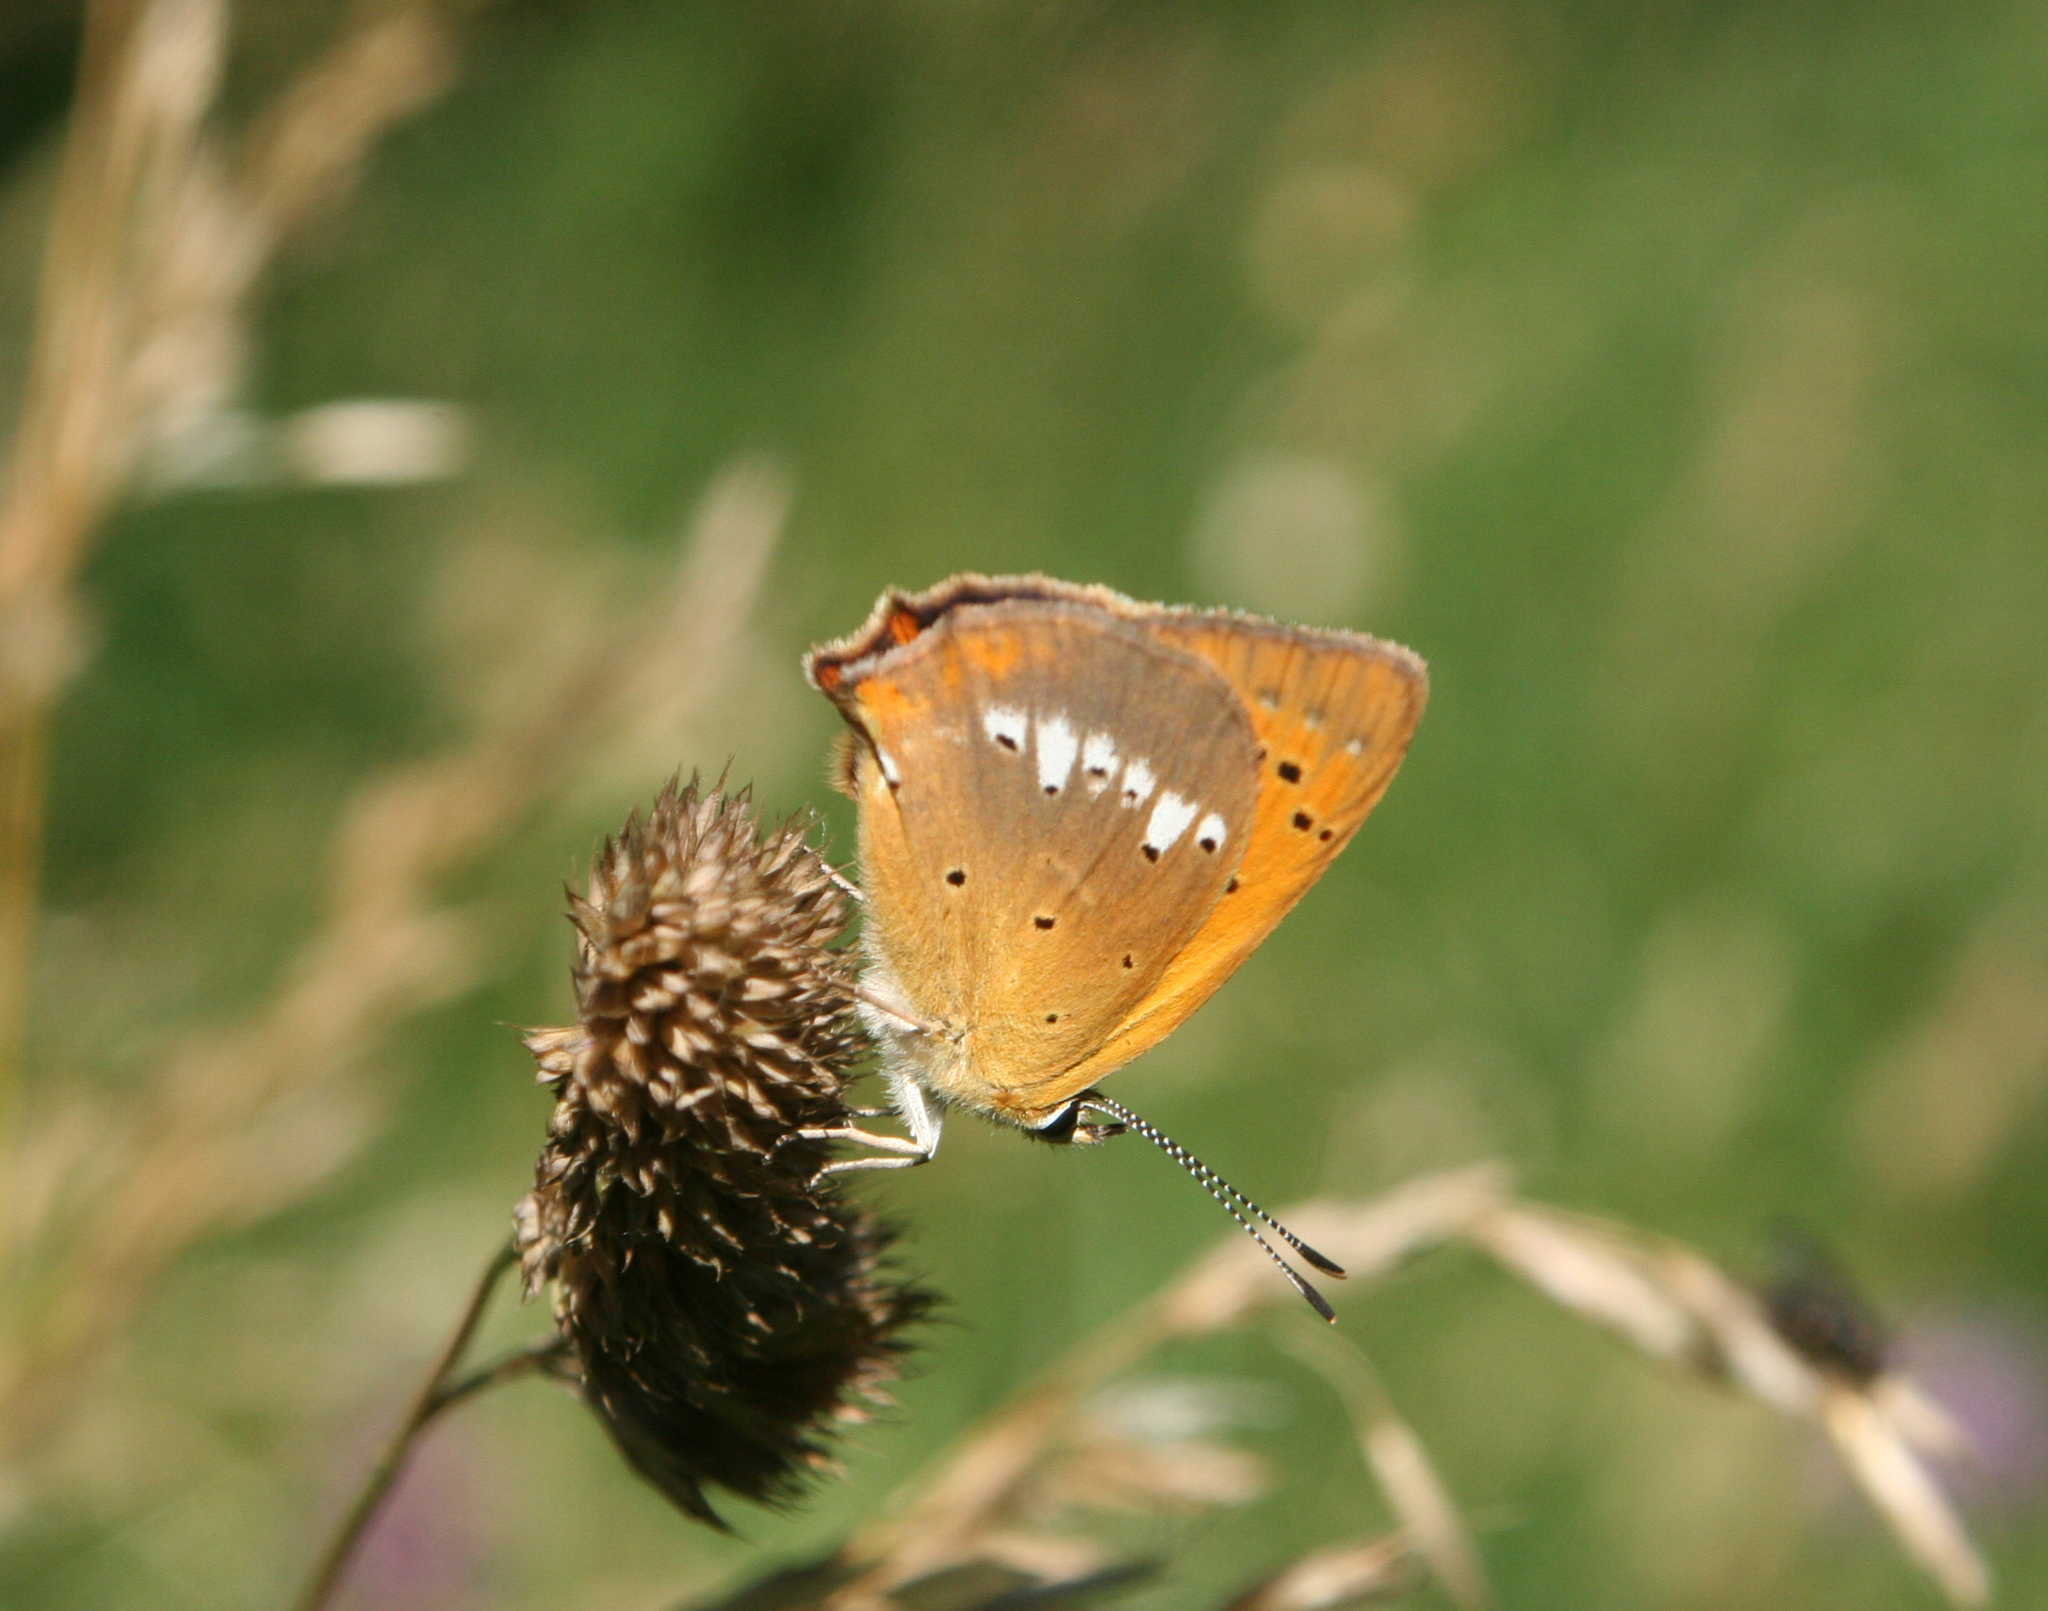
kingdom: Plantae
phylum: Tracheophyta
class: Liliopsida
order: Poales
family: Poaceae
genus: Dactylis
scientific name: Dactylis glomerata
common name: Orchardgrass
